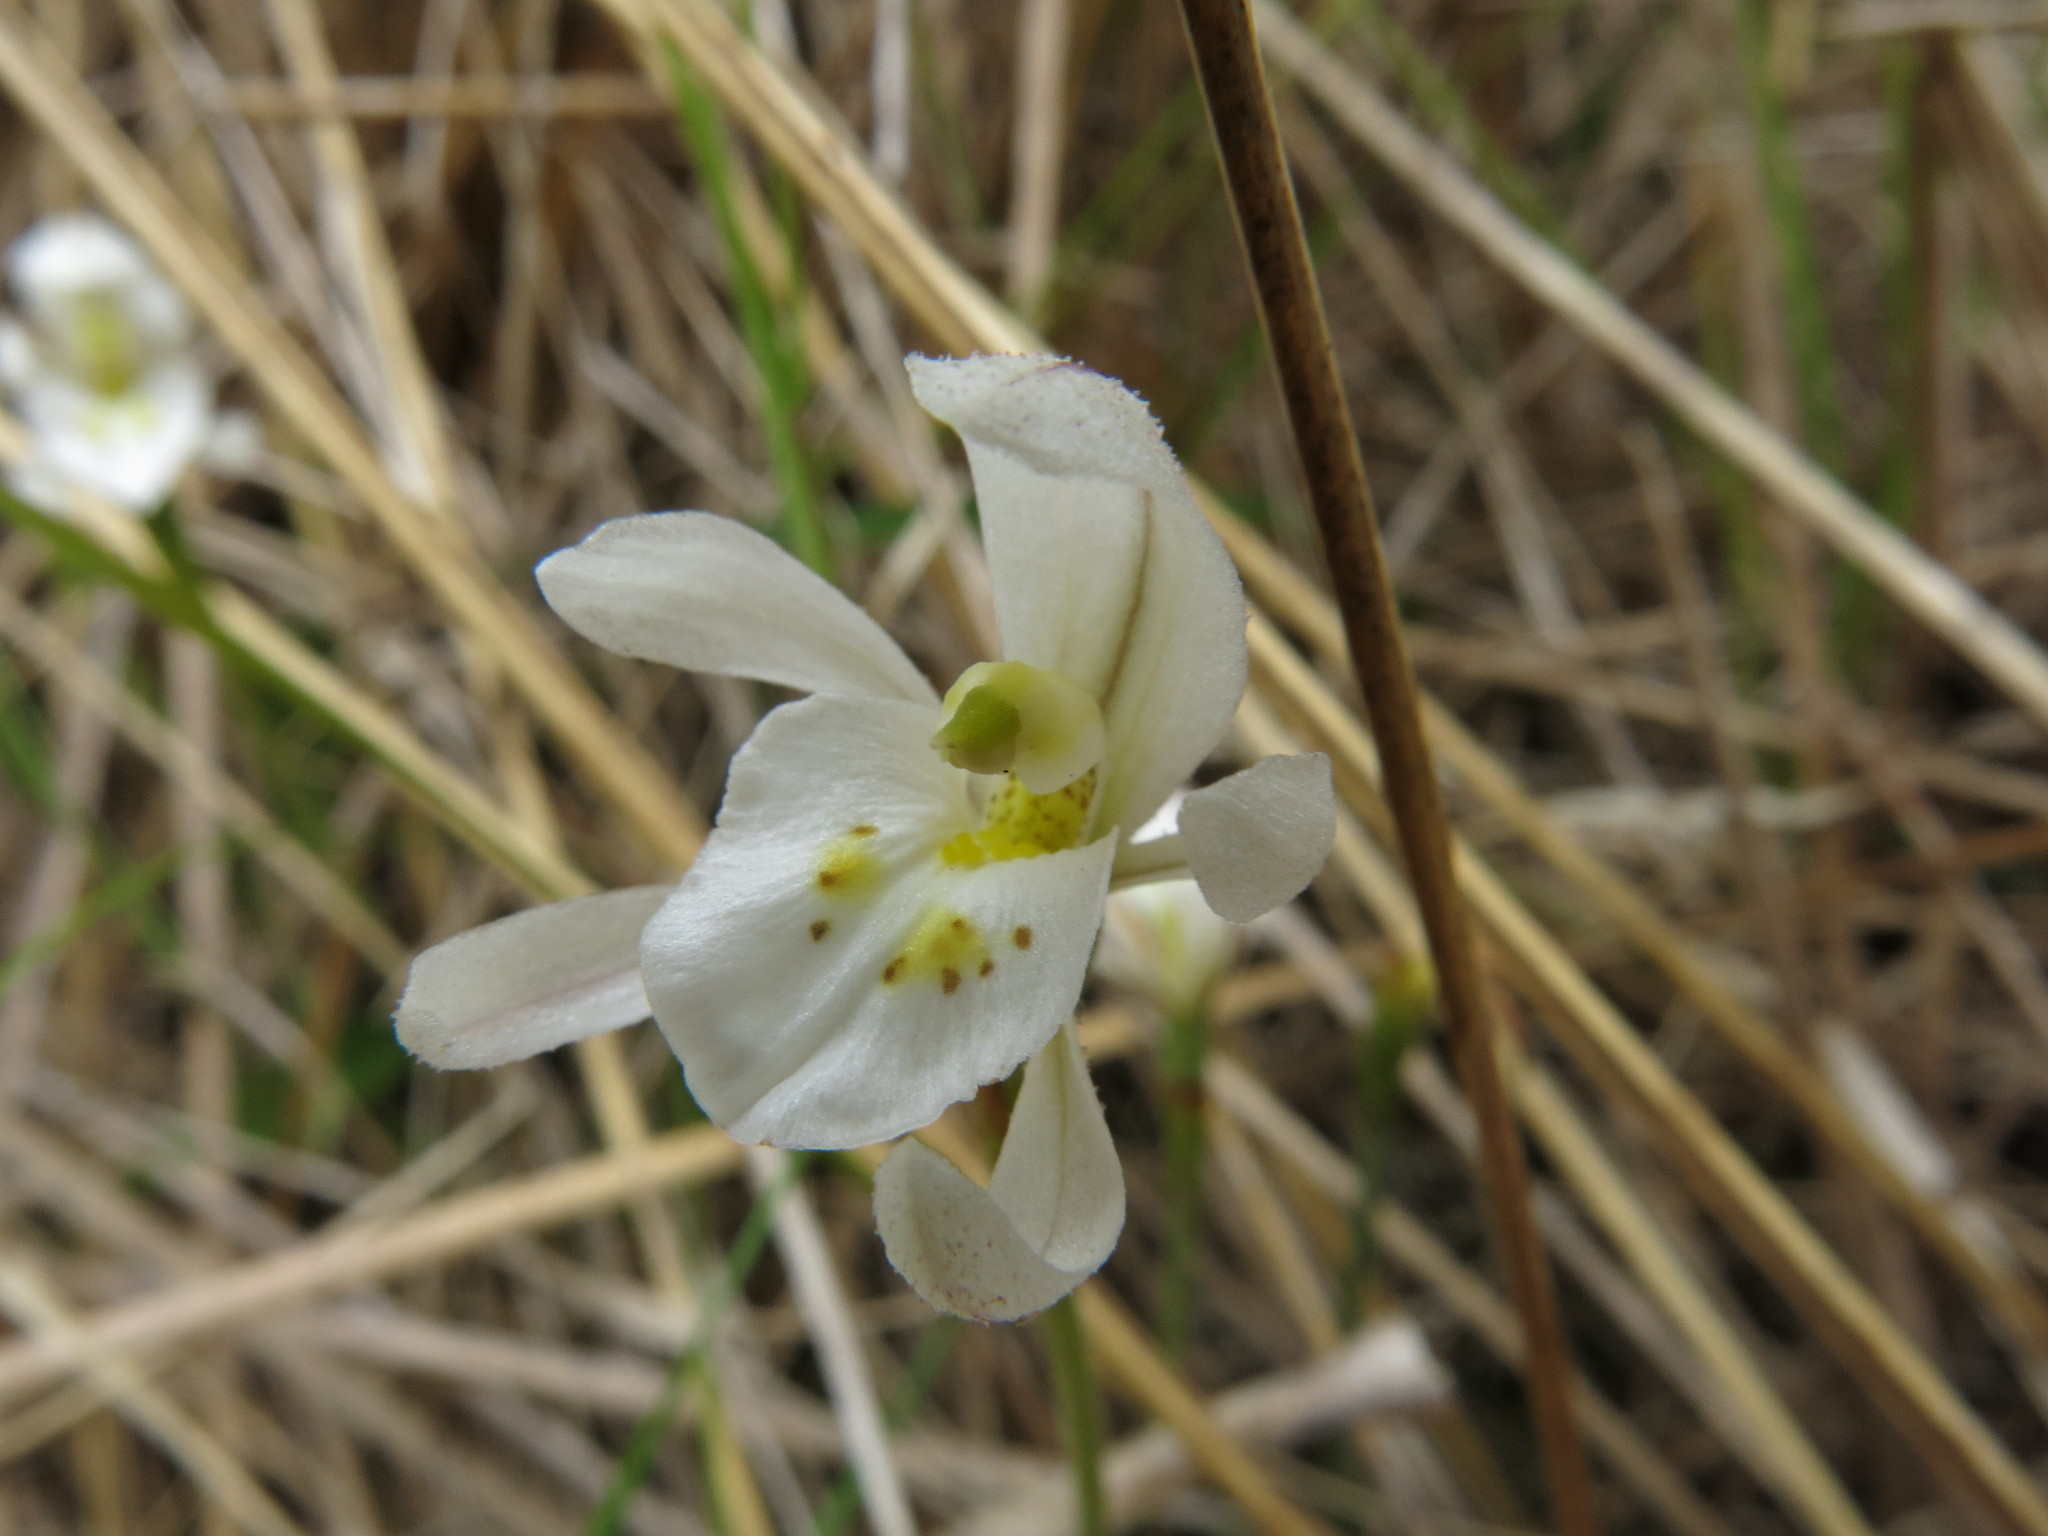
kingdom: Plantae
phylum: Tracheophyta
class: Liliopsida
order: Asparagales
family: Orchidaceae
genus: Aporostylis
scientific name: Aporostylis bifolia
